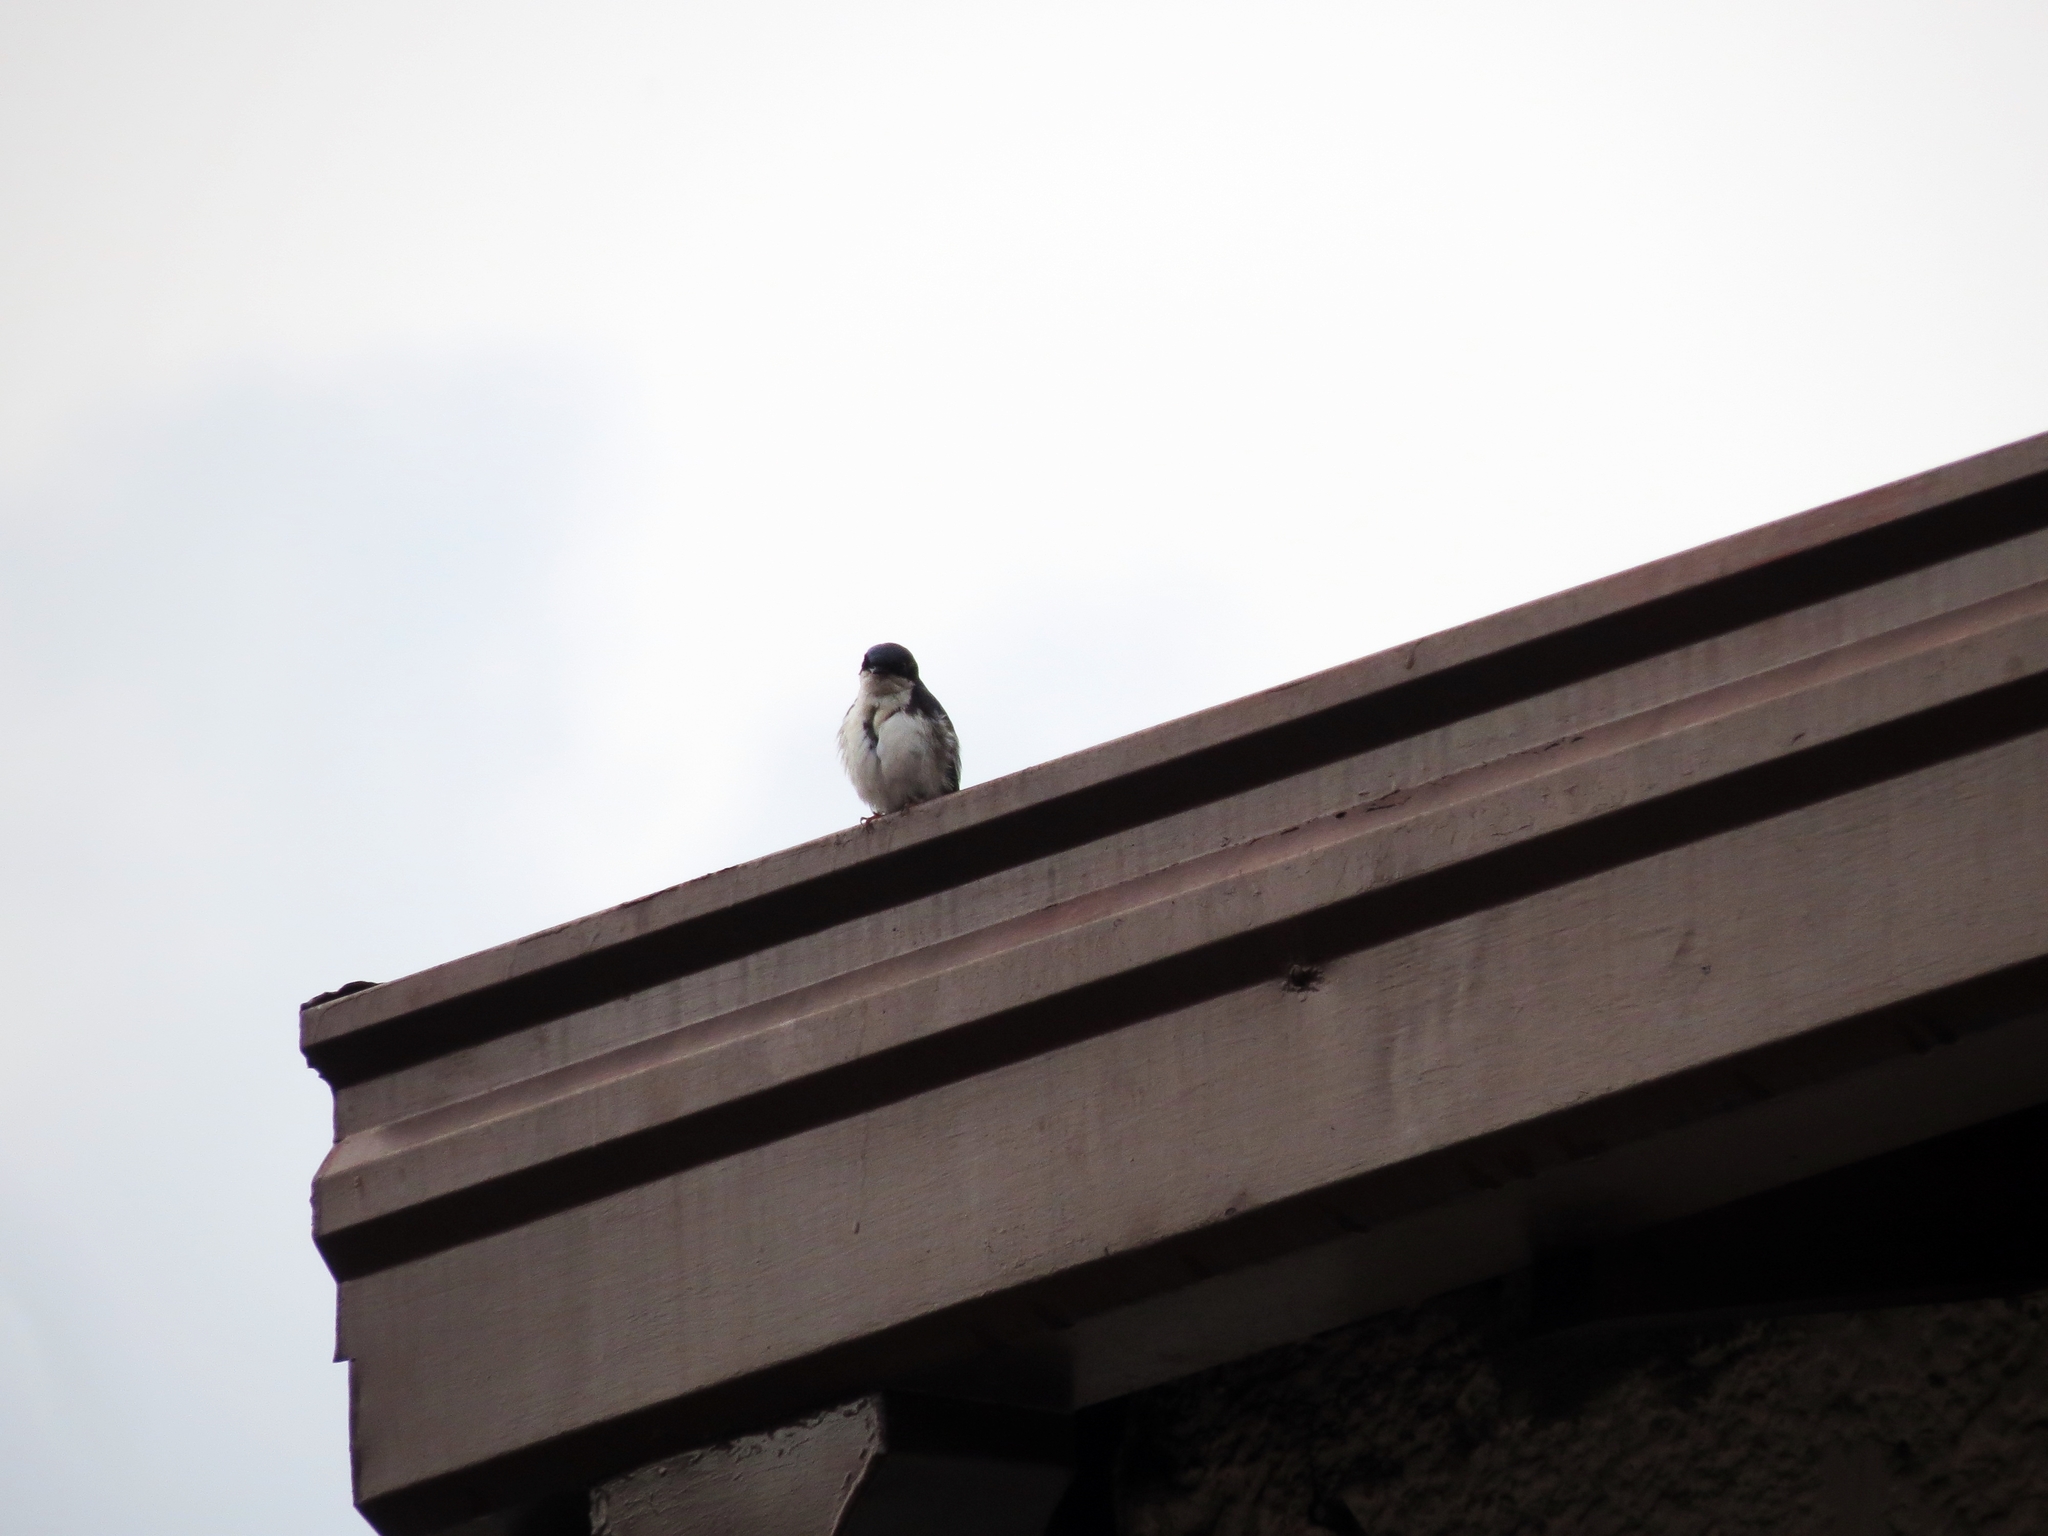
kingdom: Animalia
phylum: Chordata
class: Aves
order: Passeriformes
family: Hirundinidae
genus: Notiochelidon
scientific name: Notiochelidon cyanoleuca
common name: Blue-and-white swallow
